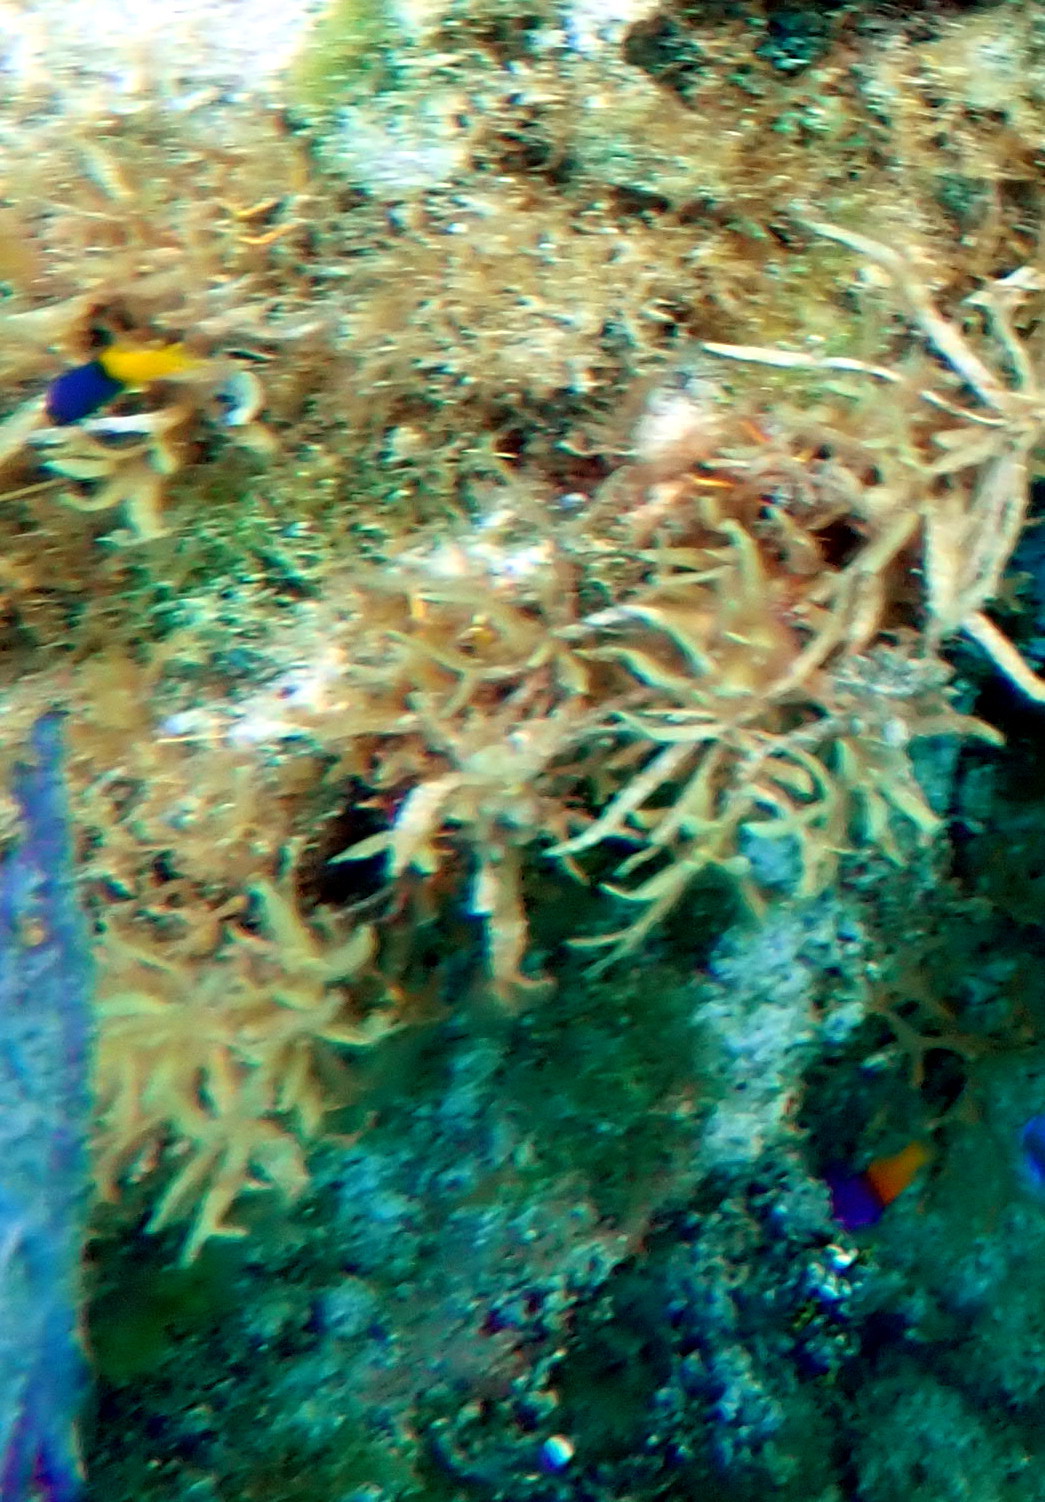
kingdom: Animalia
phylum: Chordata
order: Perciformes
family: Grammatidae
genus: Gramma
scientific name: Gramma loreto
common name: Fairy basslet
